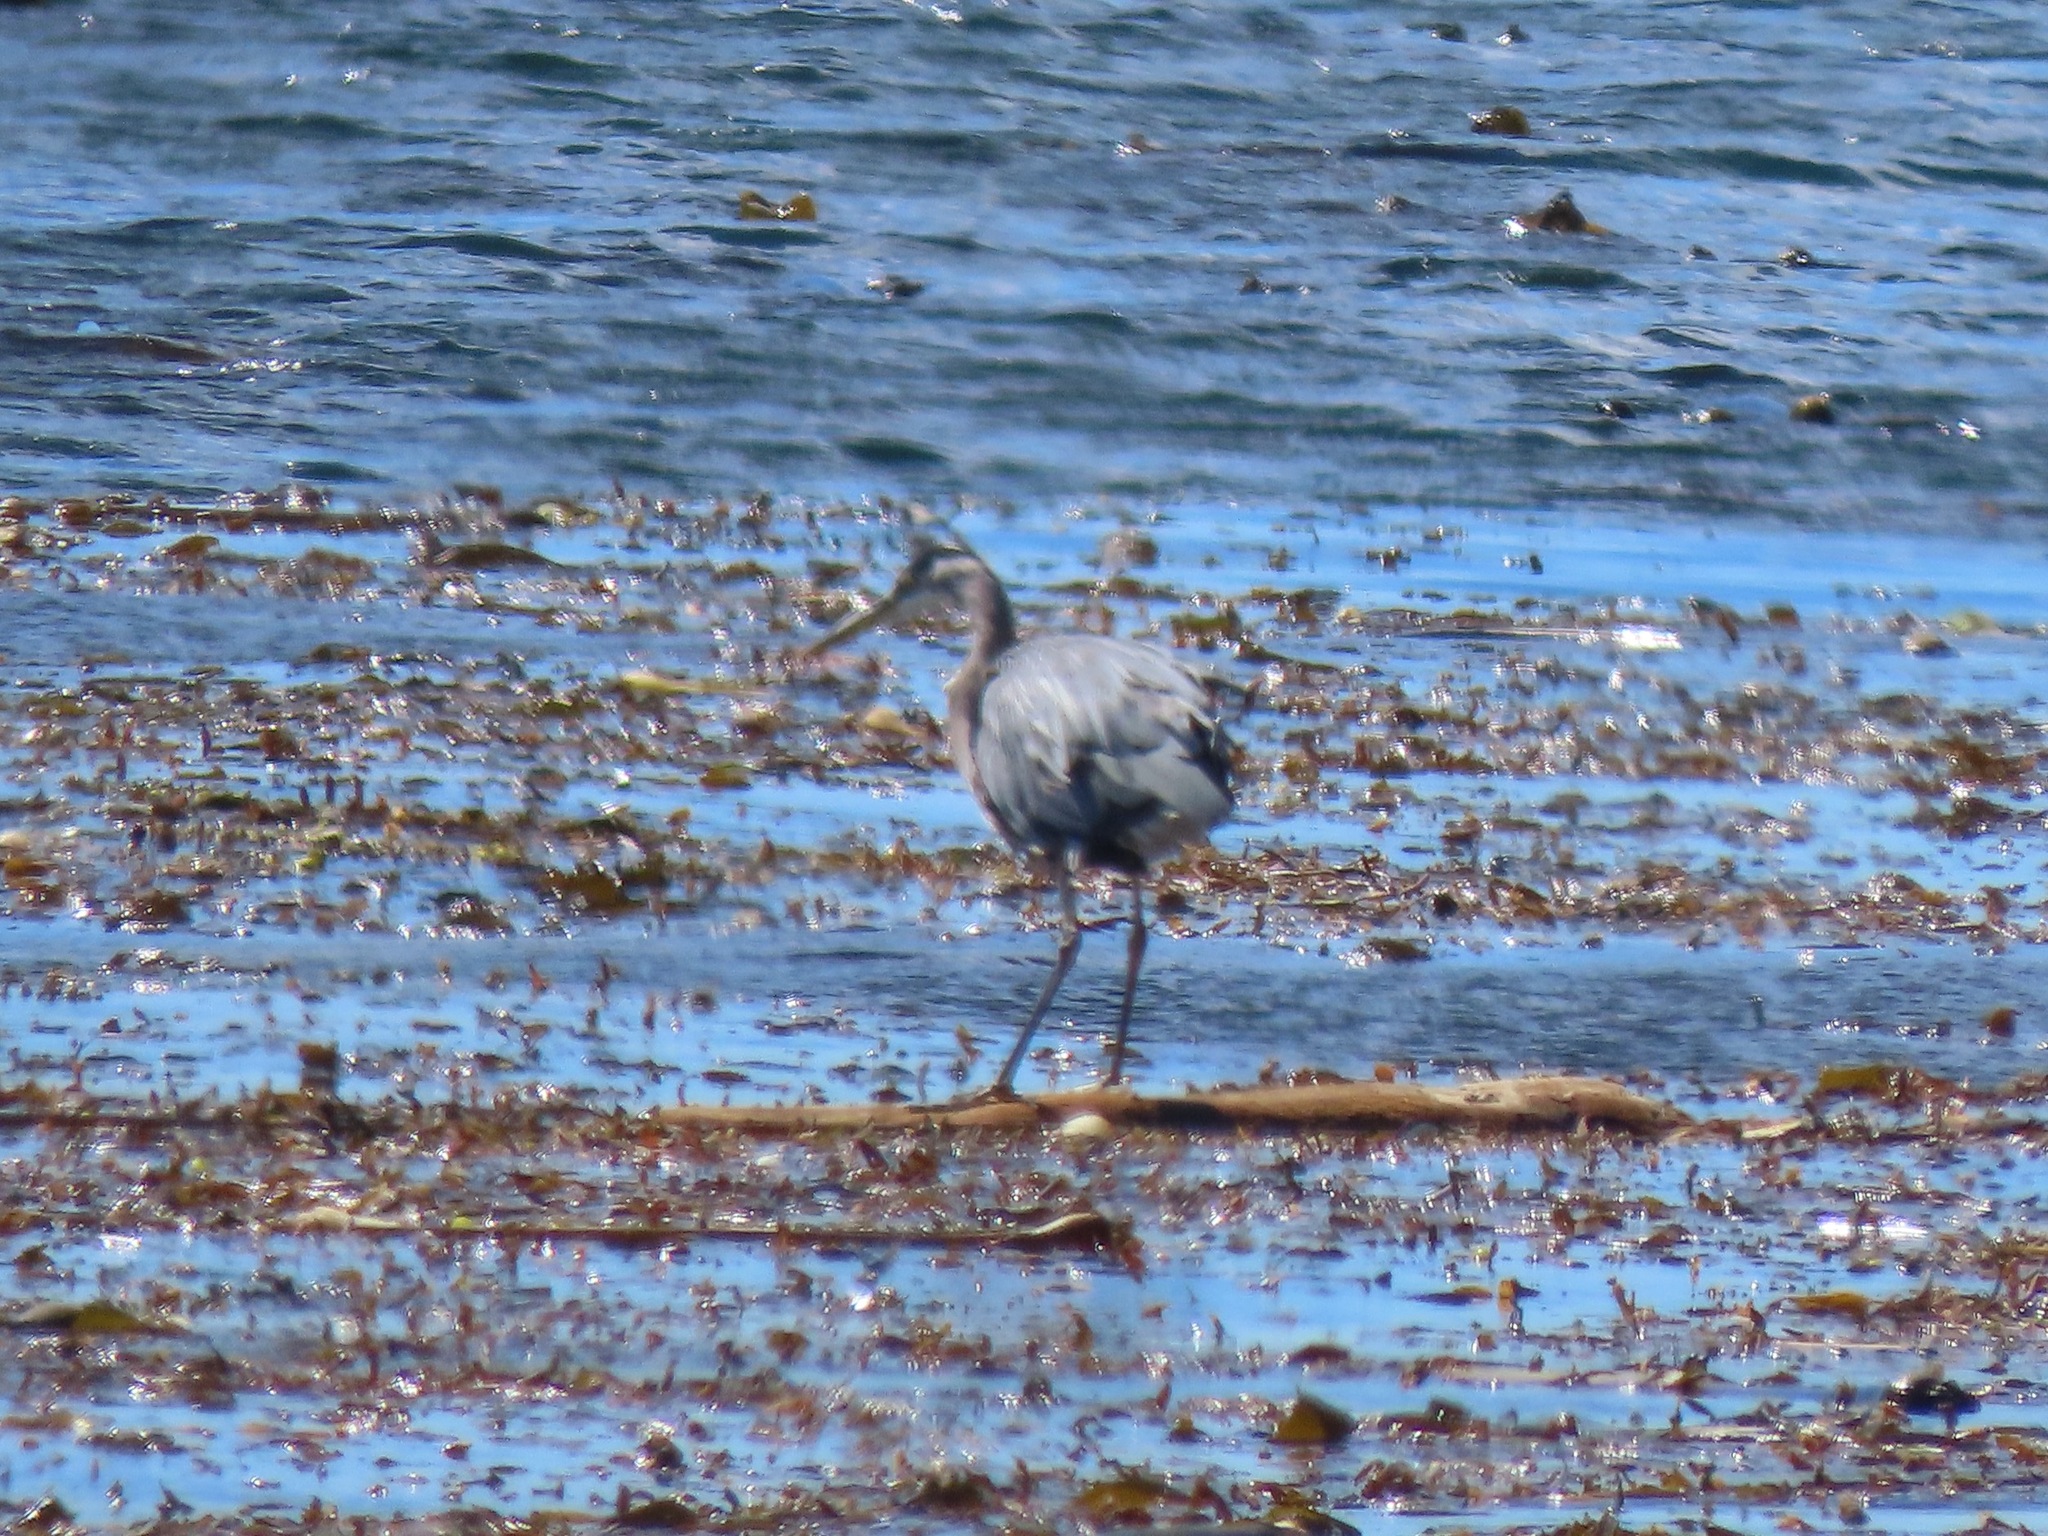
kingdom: Animalia
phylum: Chordata
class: Aves
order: Pelecaniformes
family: Ardeidae
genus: Ardea
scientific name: Ardea herodias
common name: Great blue heron
